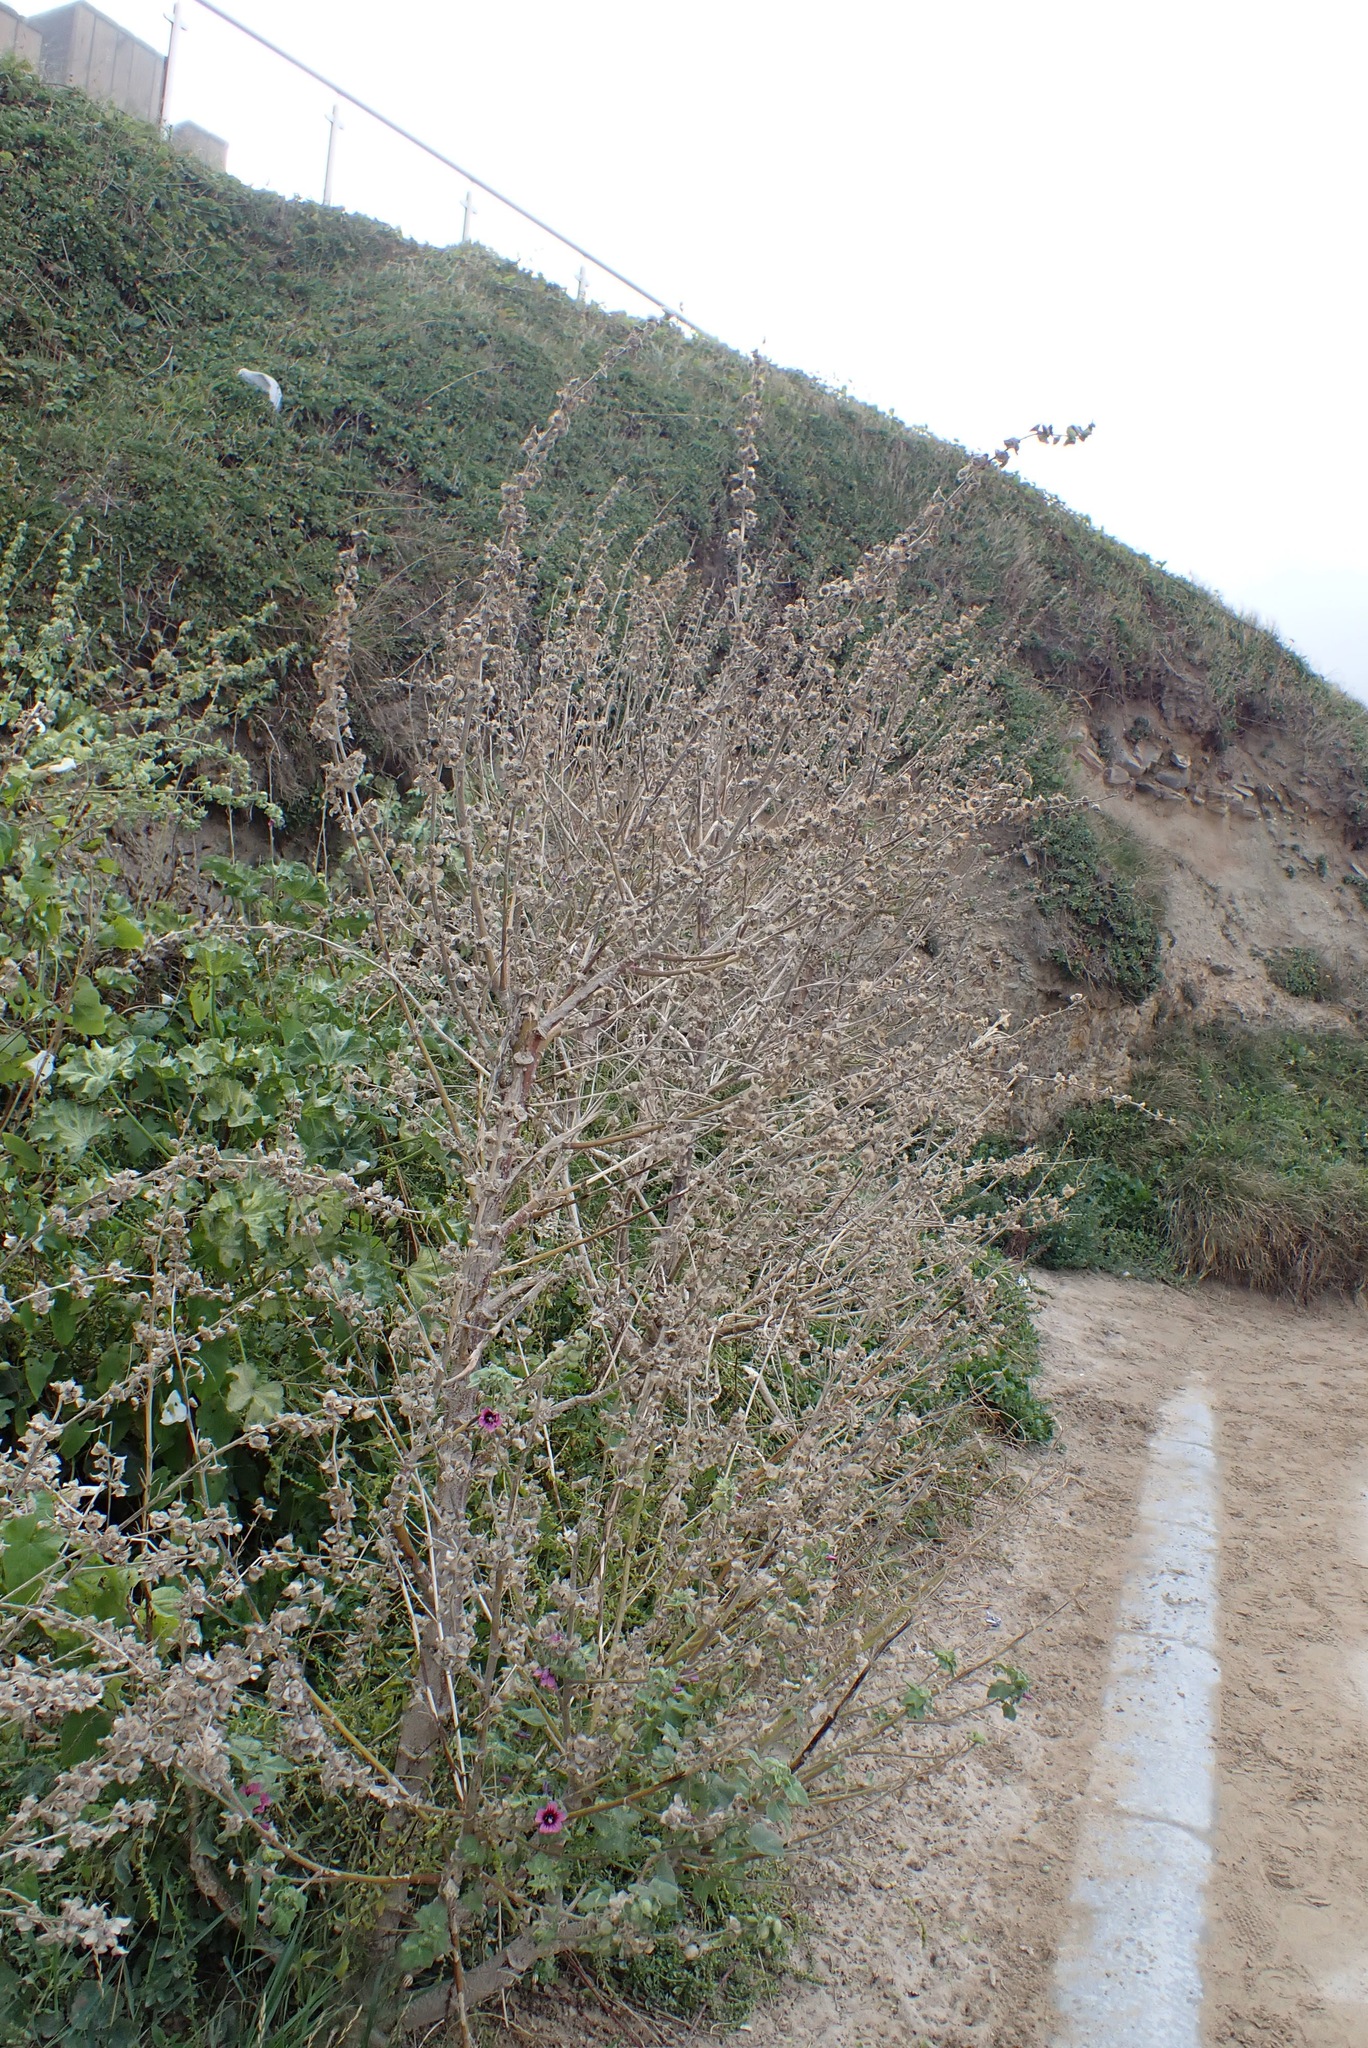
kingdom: Plantae
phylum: Tracheophyta
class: Magnoliopsida
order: Malvales
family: Malvaceae
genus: Malva
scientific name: Malva arborea
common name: Tree mallow
